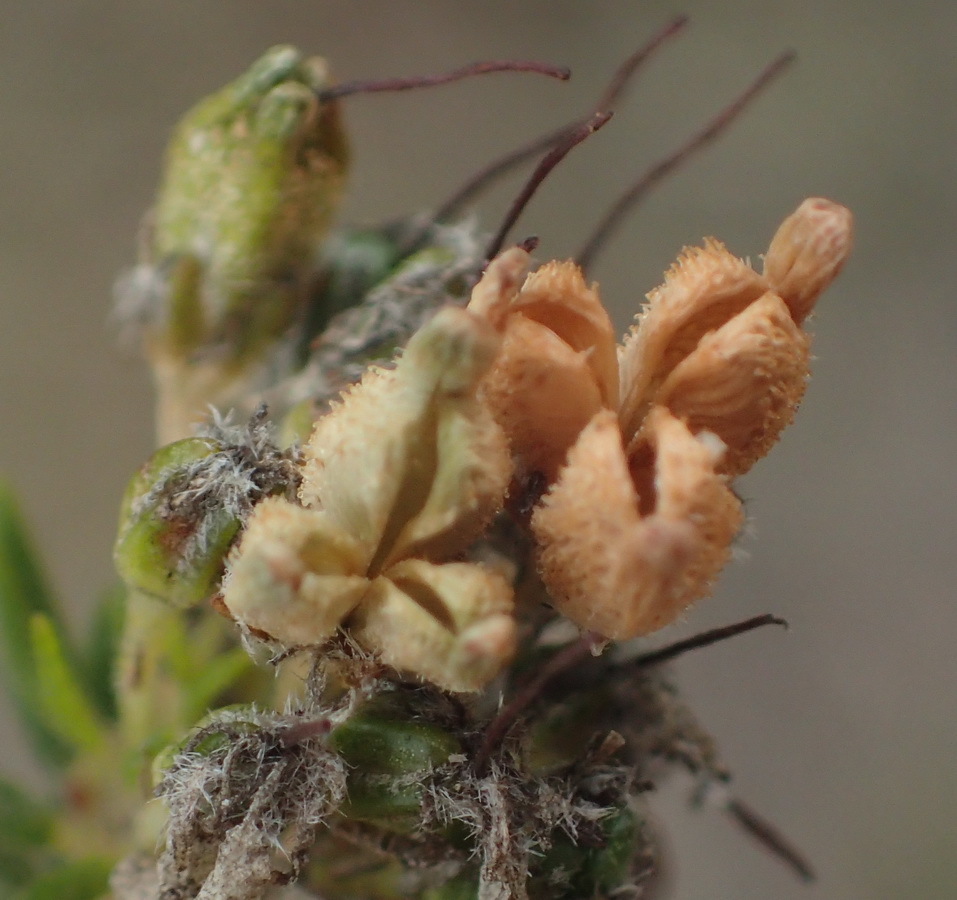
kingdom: Plantae
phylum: Tracheophyta
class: Magnoliopsida
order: Sapindales
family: Rutaceae
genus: Agathosma
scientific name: Agathosma
